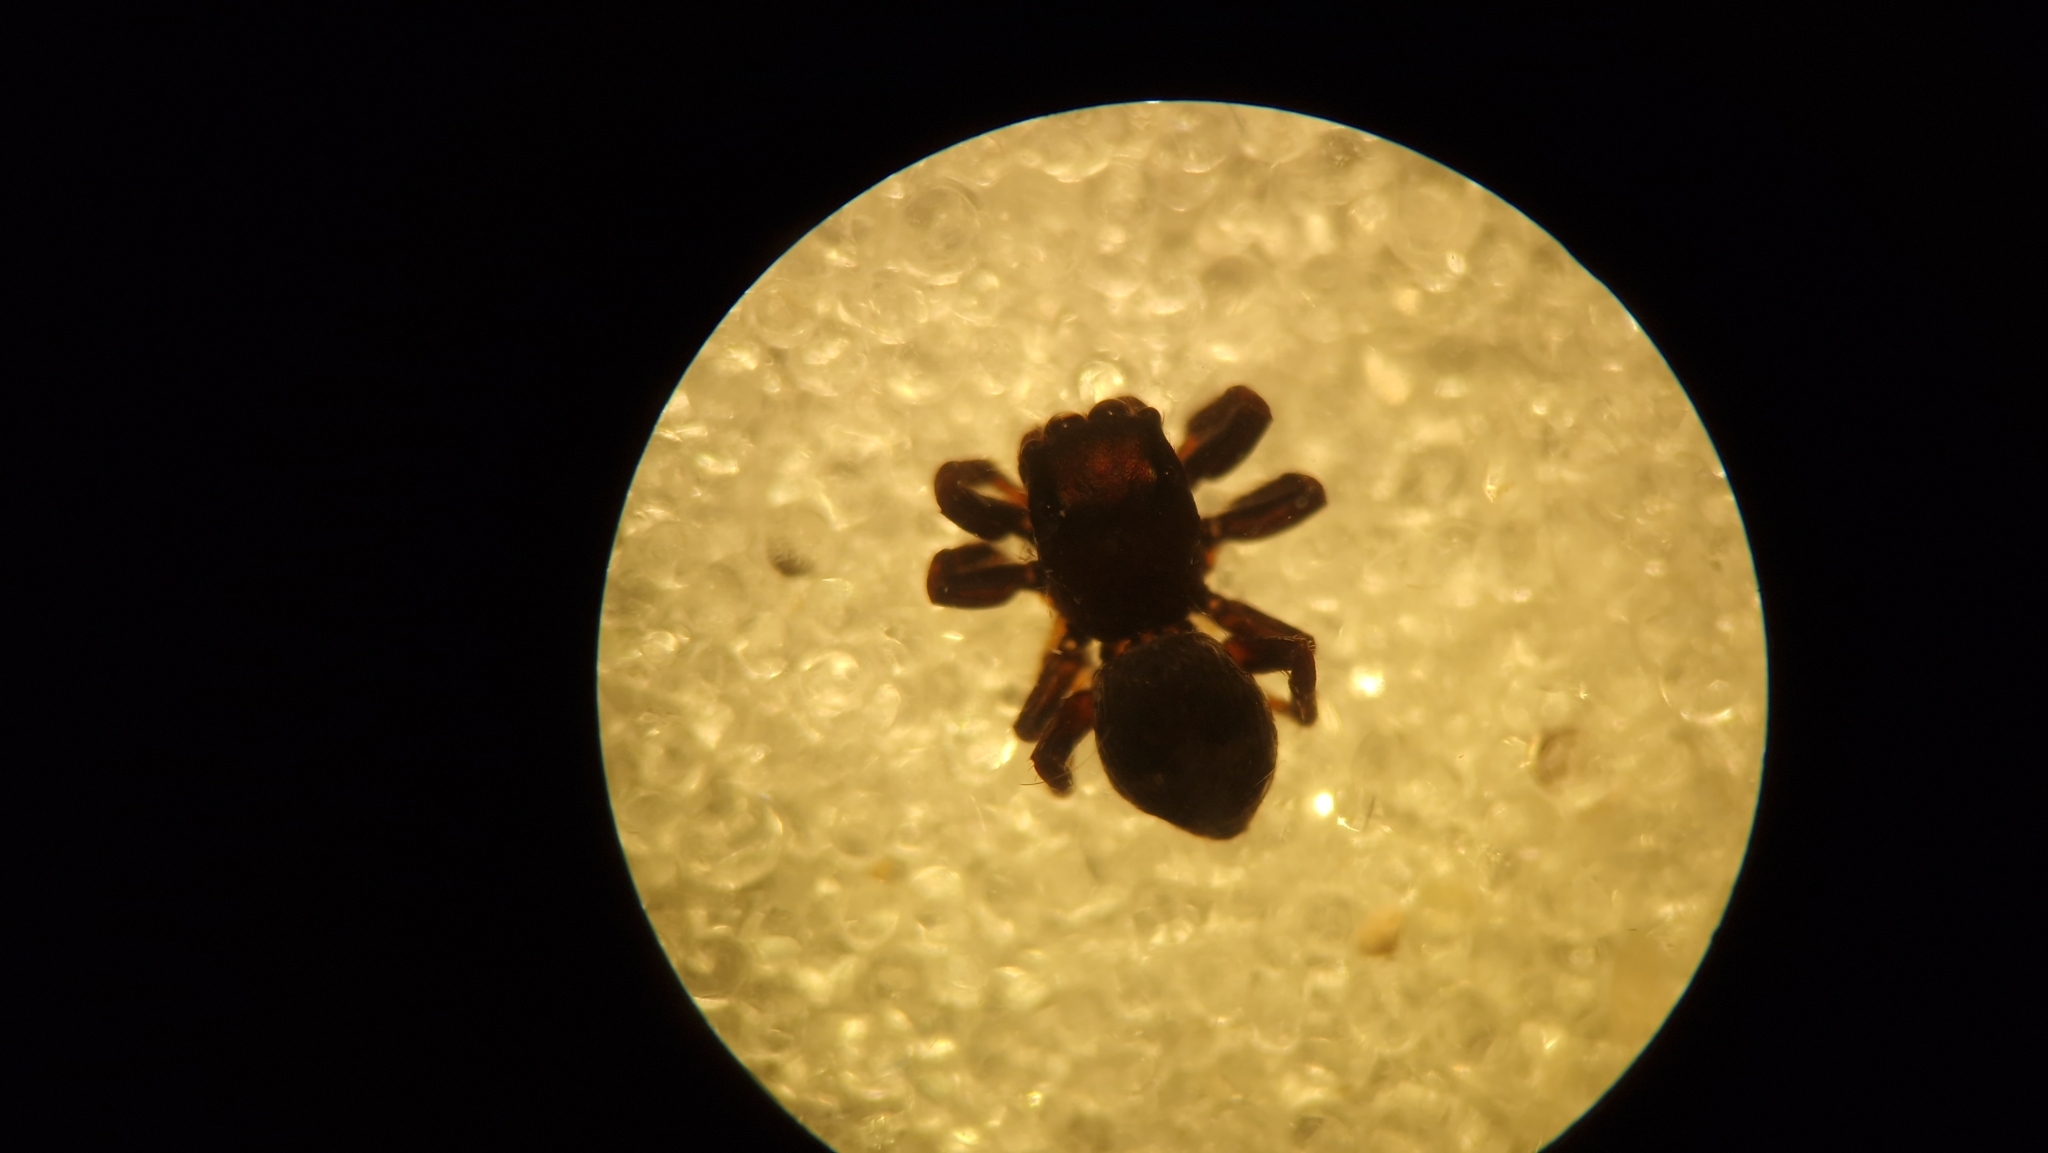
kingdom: Animalia
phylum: Arthropoda
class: Arachnida
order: Araneae
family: Salticidae
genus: Attulus
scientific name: Attulus caricis
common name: Sedge jumper
